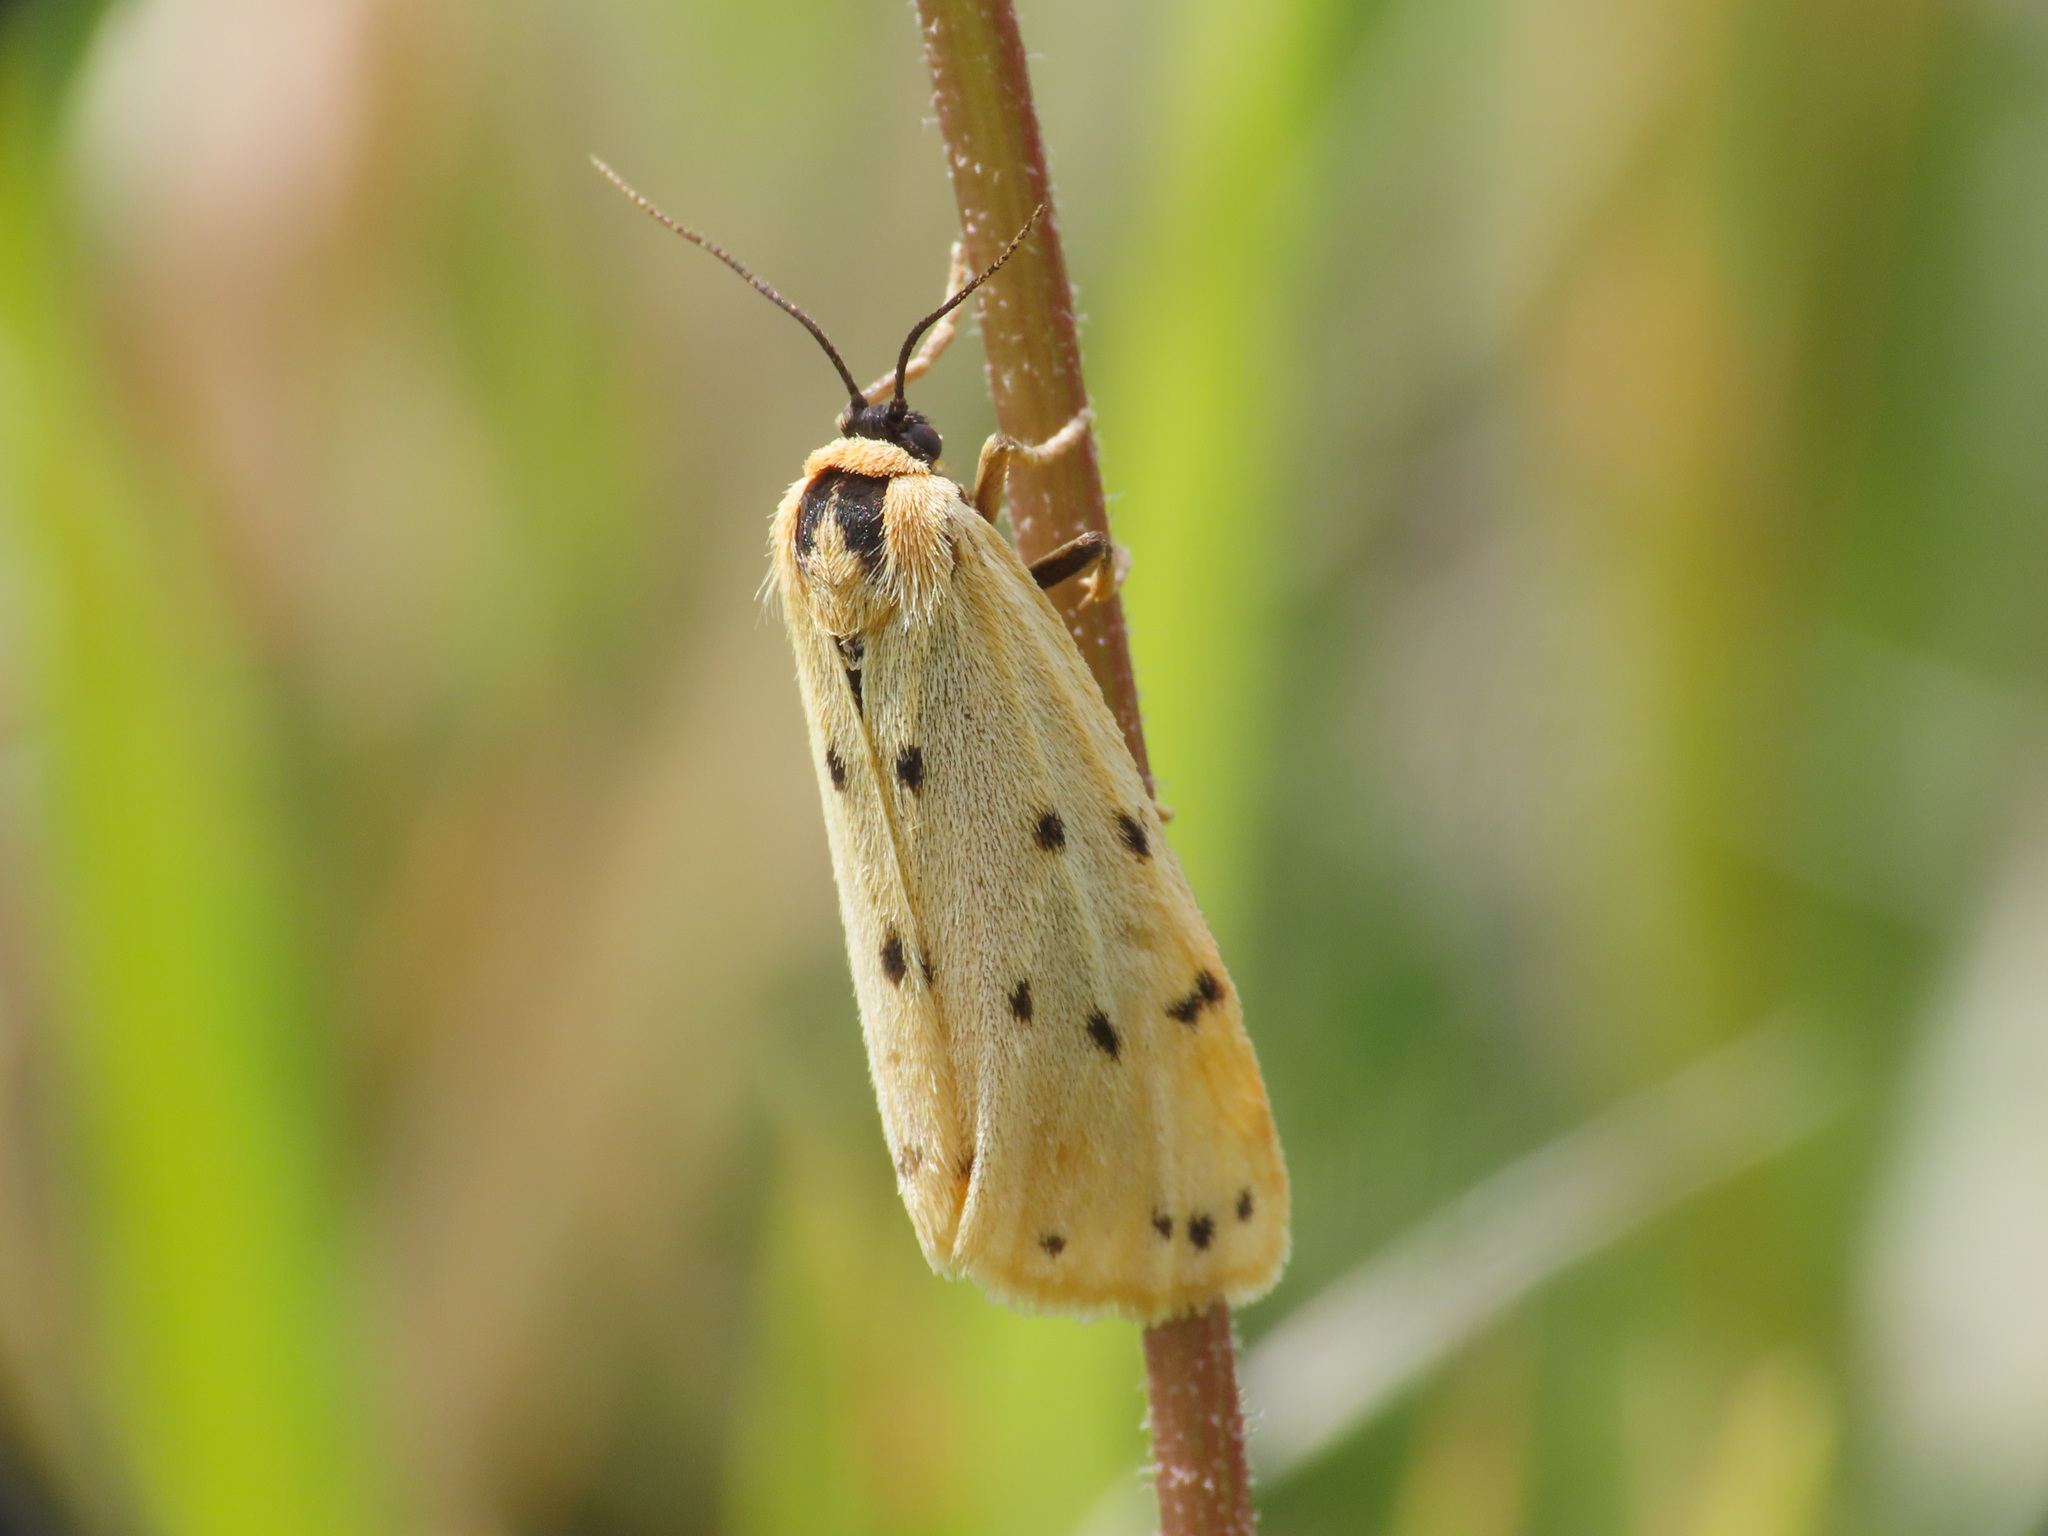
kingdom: Animalia
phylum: Arthropoda
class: Insecta
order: Lepidoptera
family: Erebidae
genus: Setina
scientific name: Setina irrorella
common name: Dew moth
